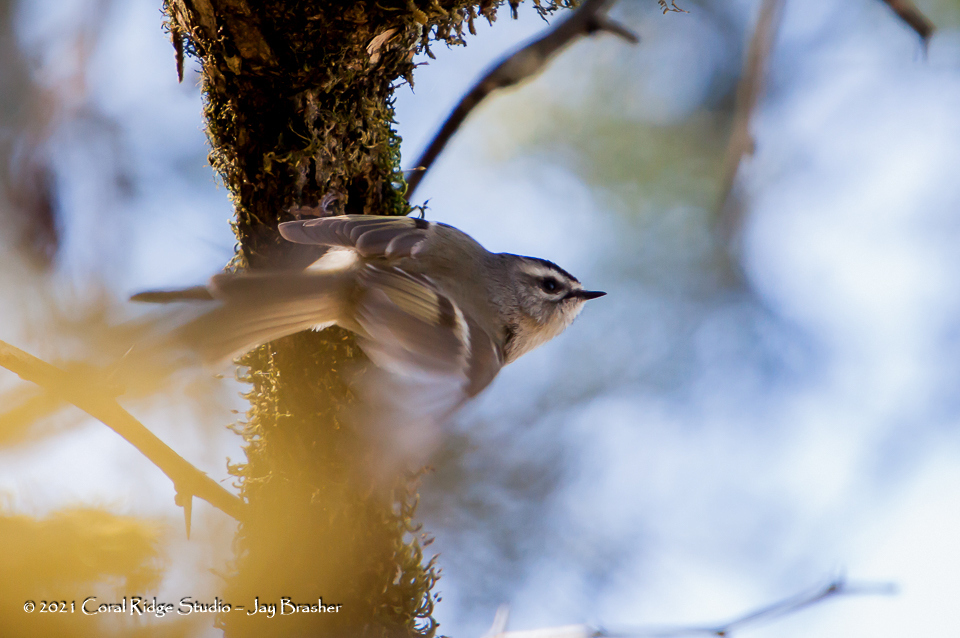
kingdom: Animalia
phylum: Chordata
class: Aves
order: Passeriformes
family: Regulidae
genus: Regulus
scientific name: Regulus satrapa
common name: Golden-crowned kinglet
